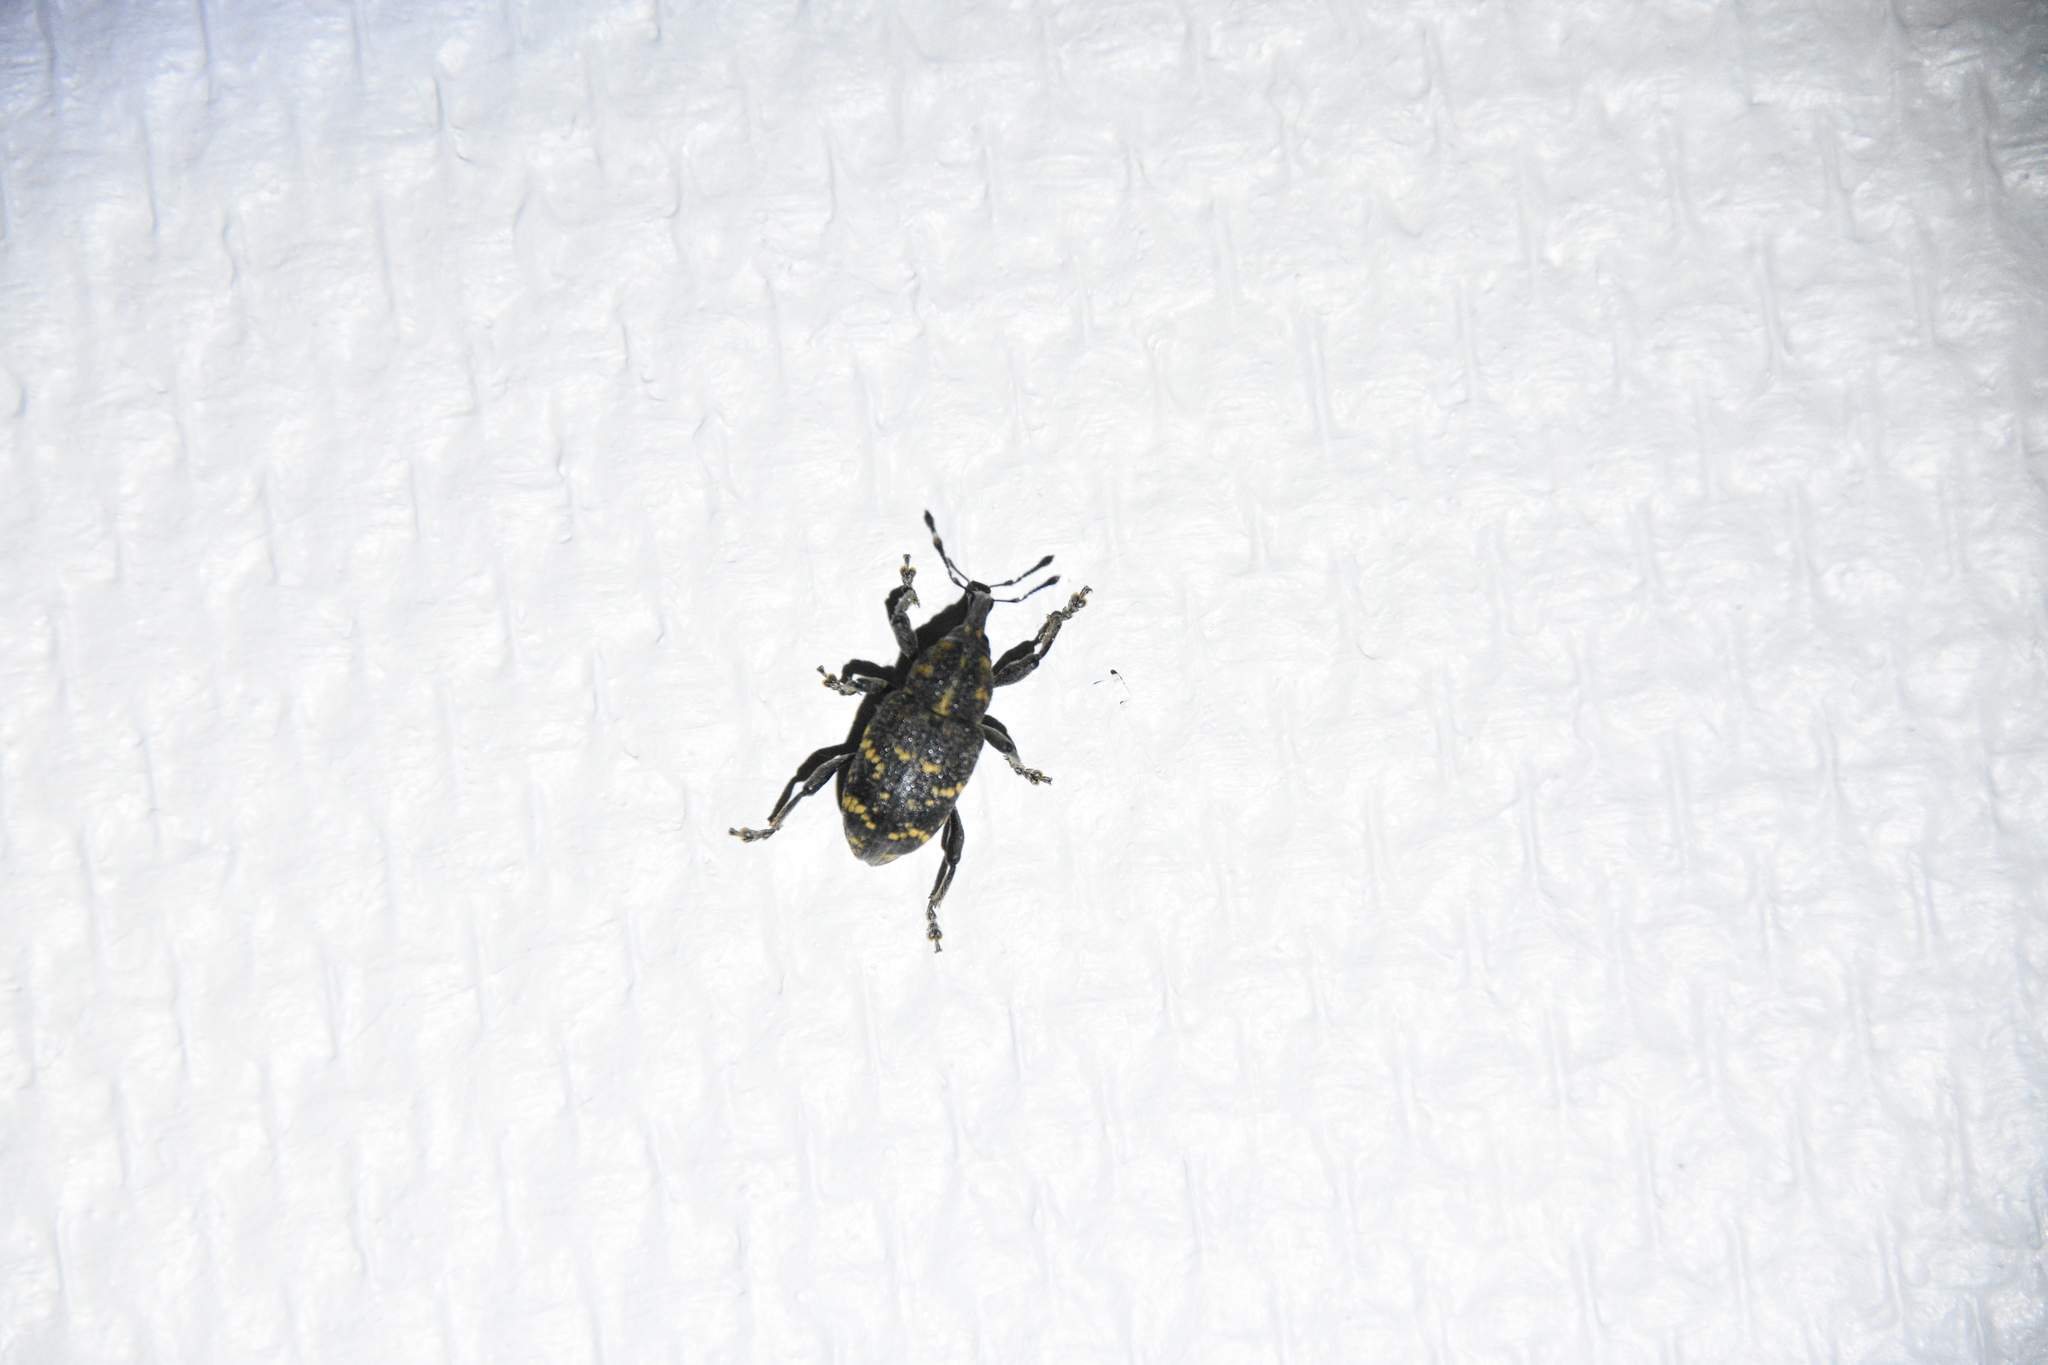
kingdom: Animalia
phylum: Arthropoda
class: Insecta
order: Coleoptera
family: Curculionidae
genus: Hylobius
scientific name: Hylobius abietis
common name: Large pine weevil
